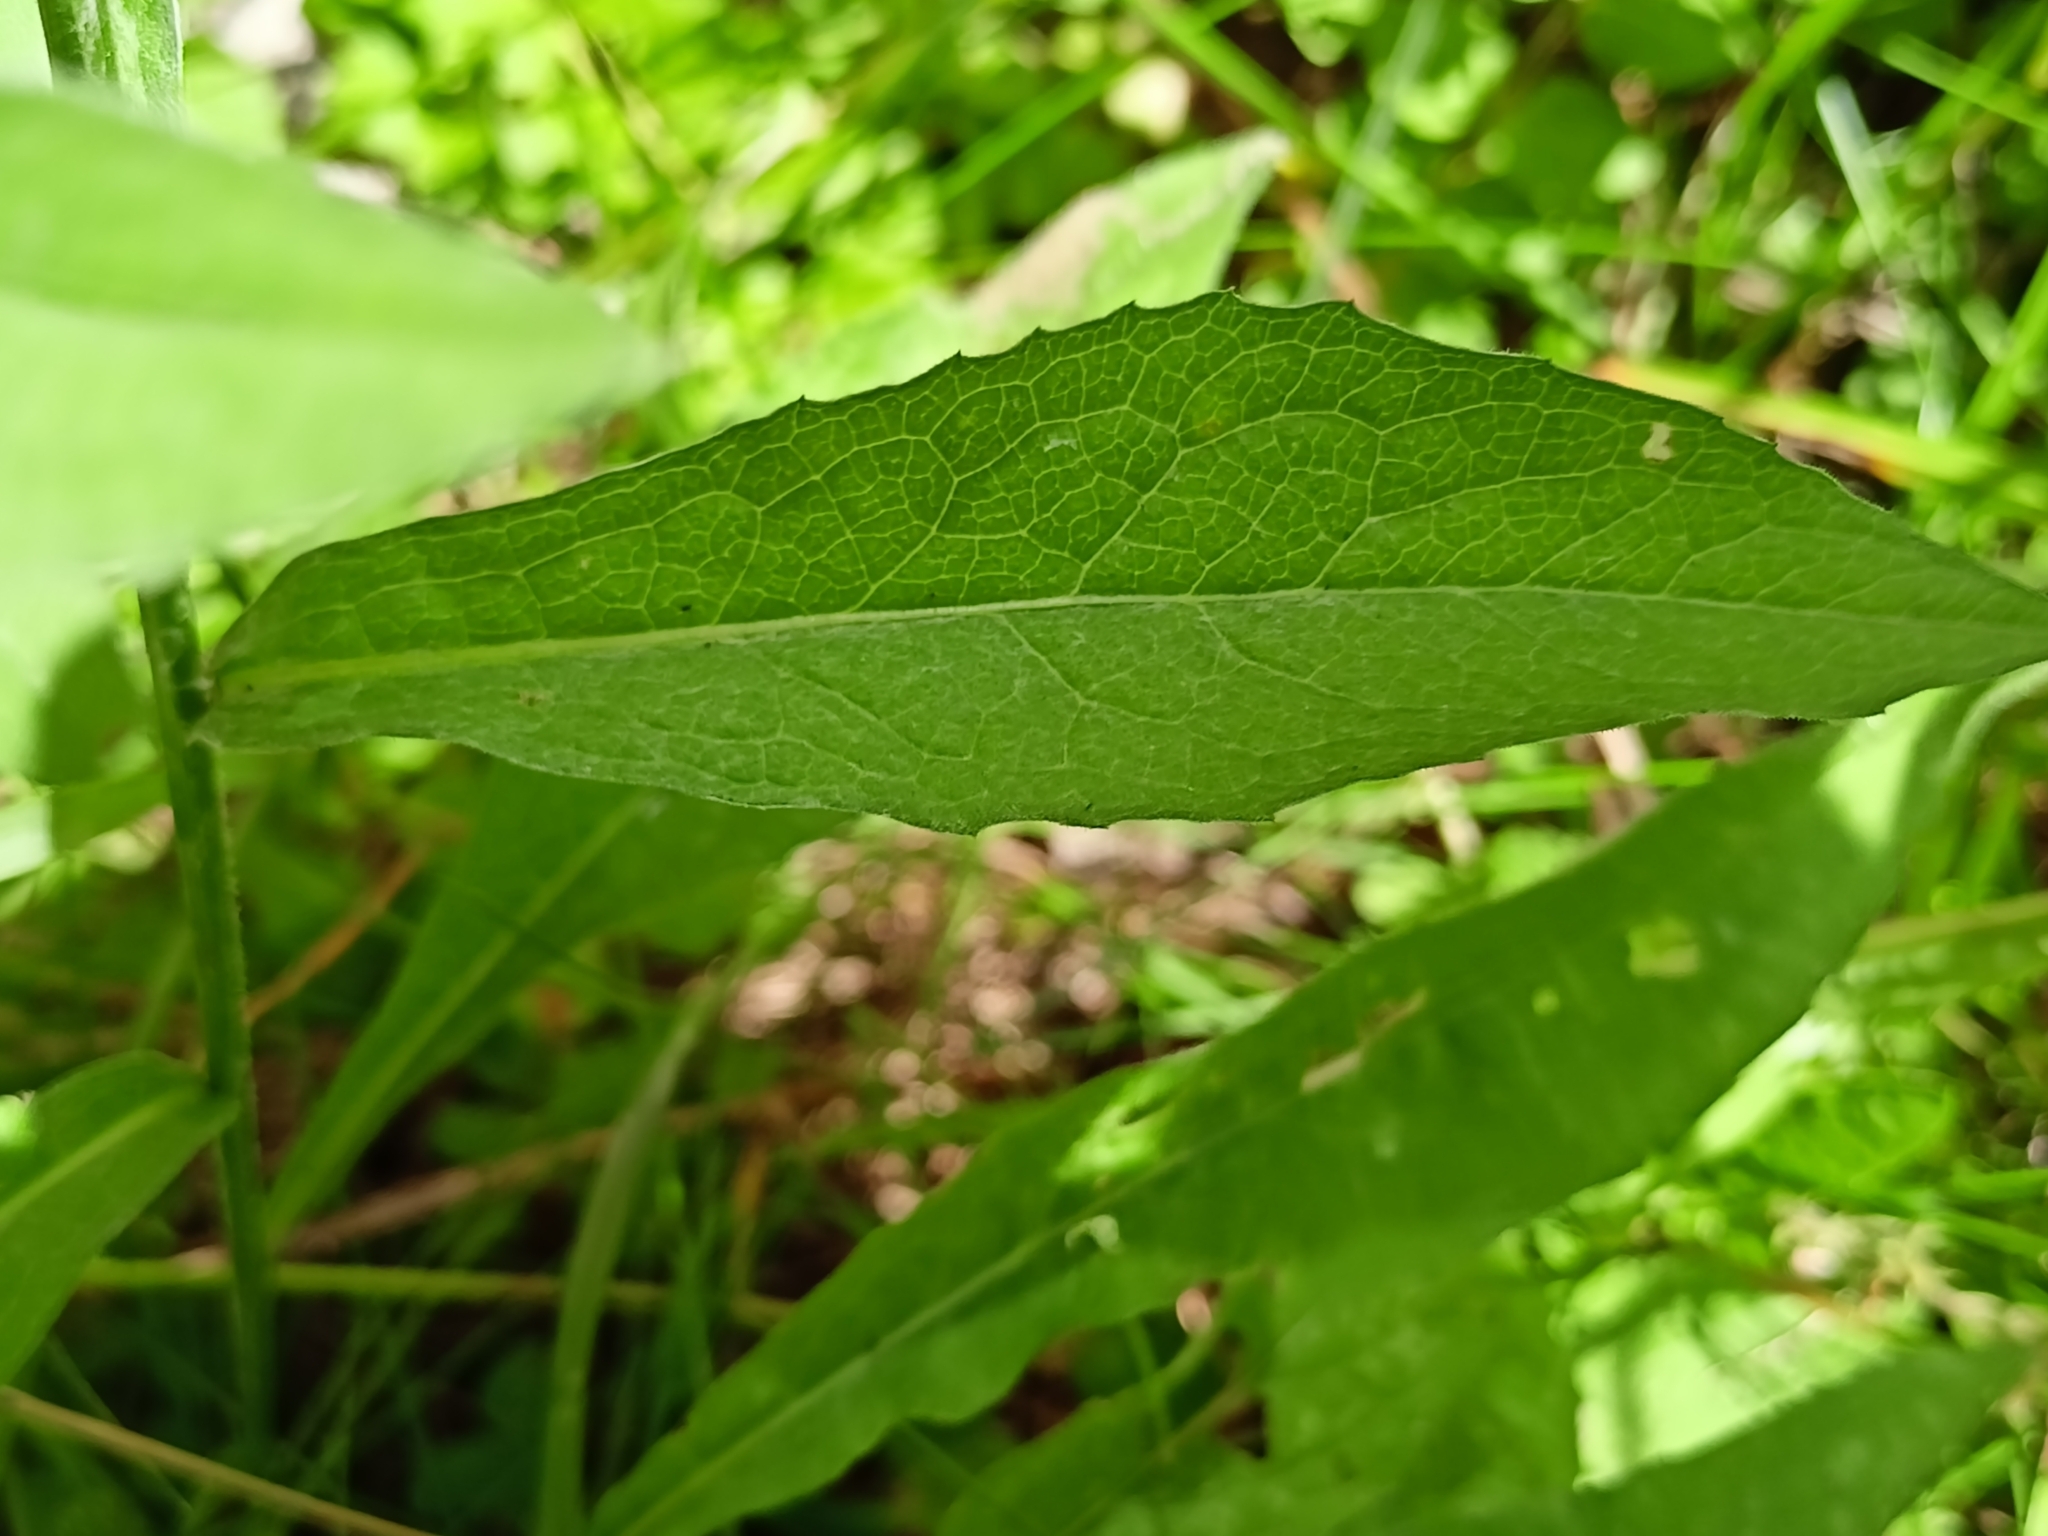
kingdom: Plantae
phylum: Tracheophyta
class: Magnoliopsida
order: Asterales
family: Asteraceae
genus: Centaurea
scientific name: Centaurea jacea
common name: Brown knapweed
